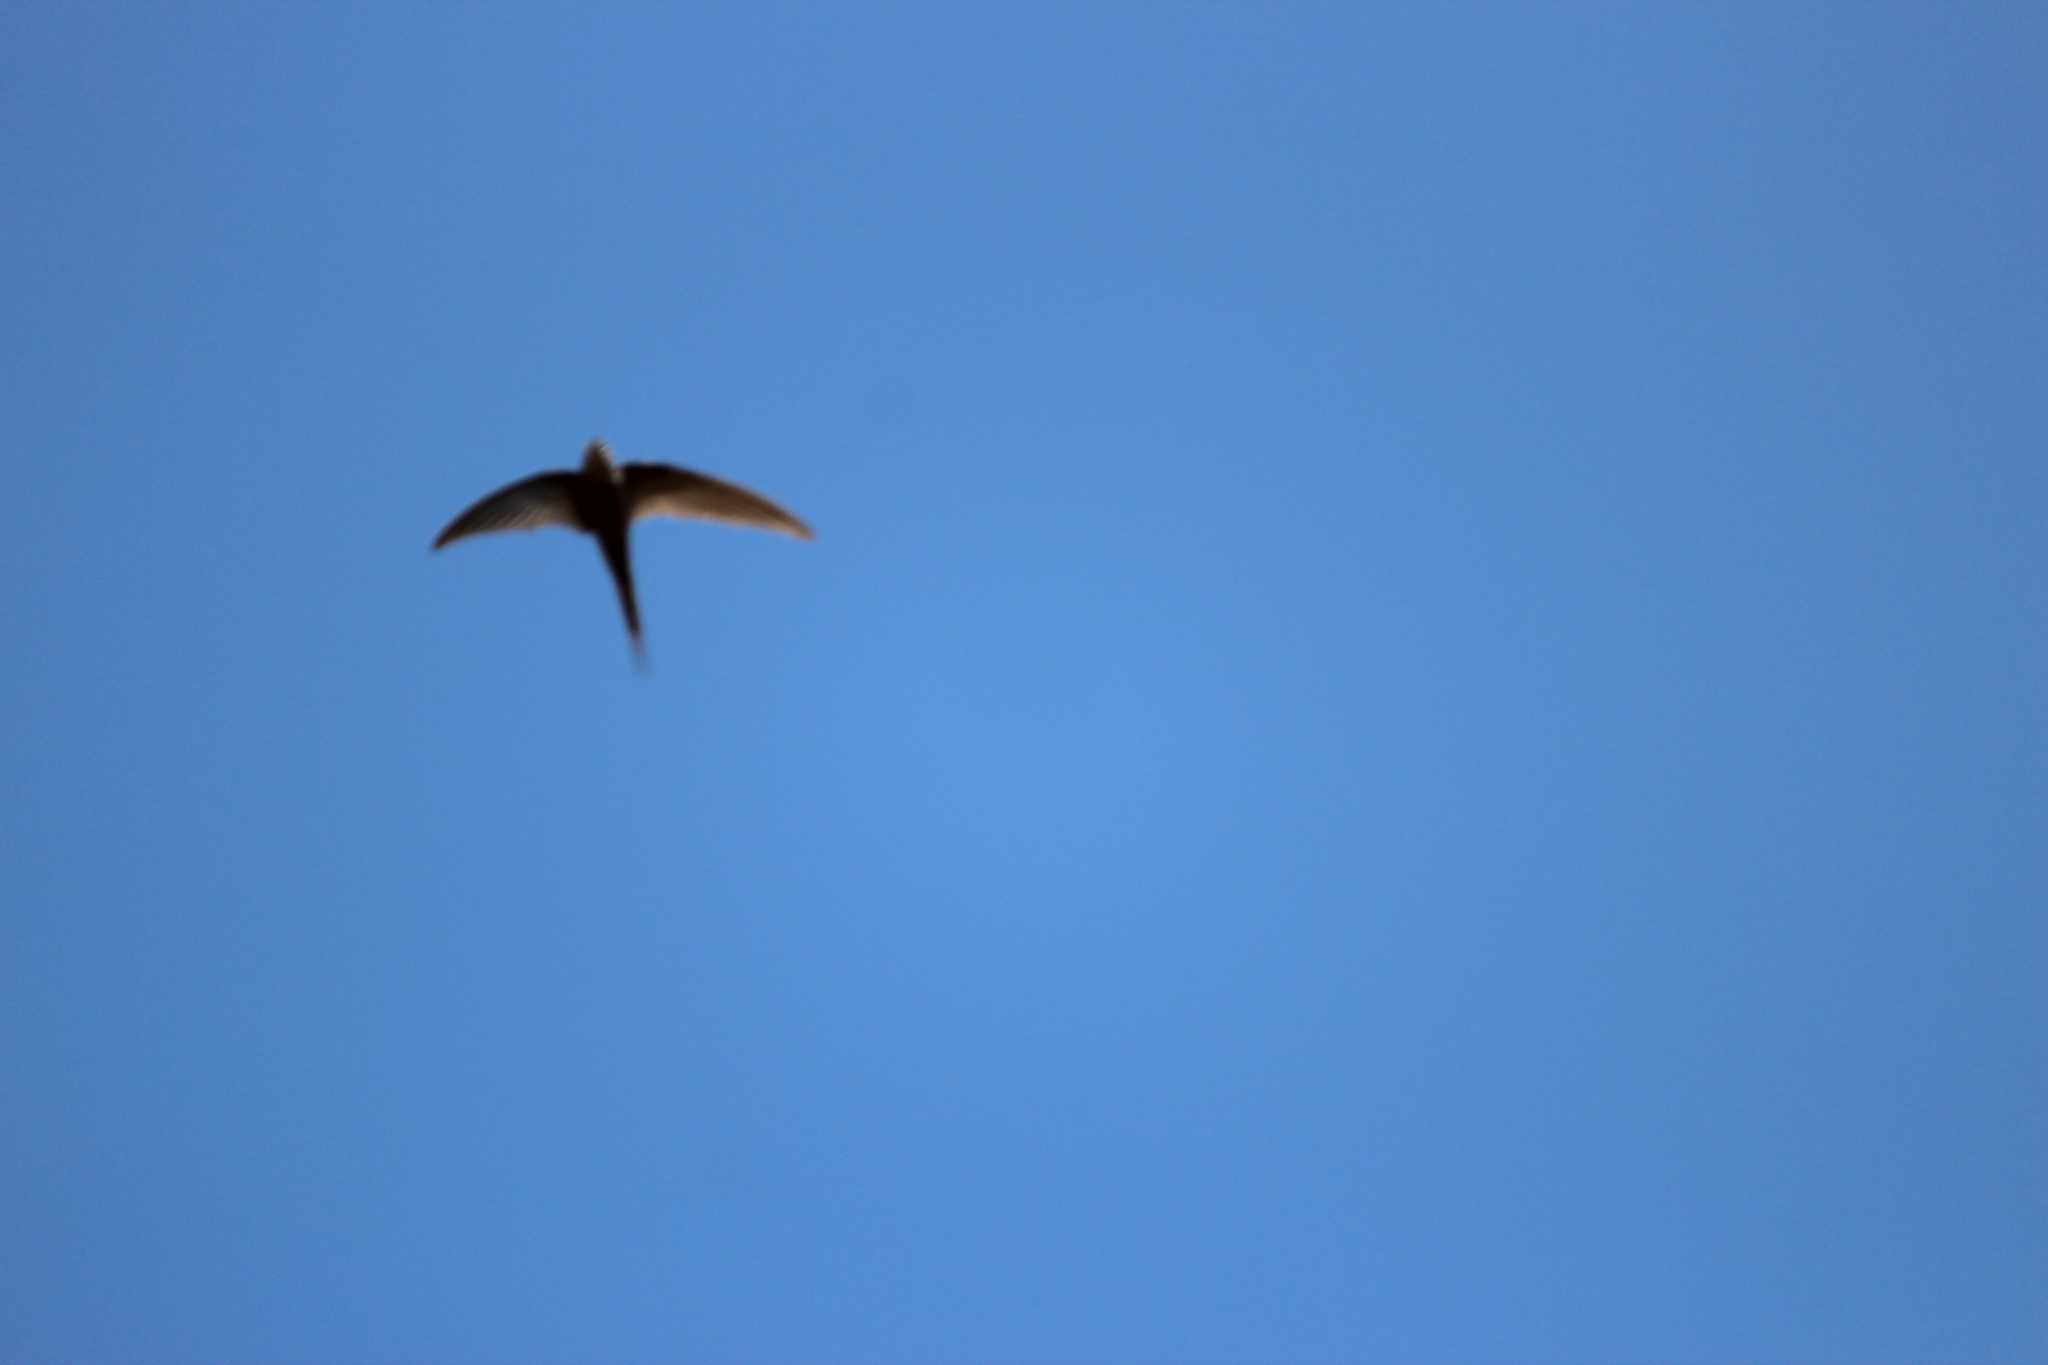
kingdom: Animalia
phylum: Chordata
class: Aves
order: Apodiformes
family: Apodidae
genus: Cypsiurus
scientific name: Cypsiurus parvus
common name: African palm swift
